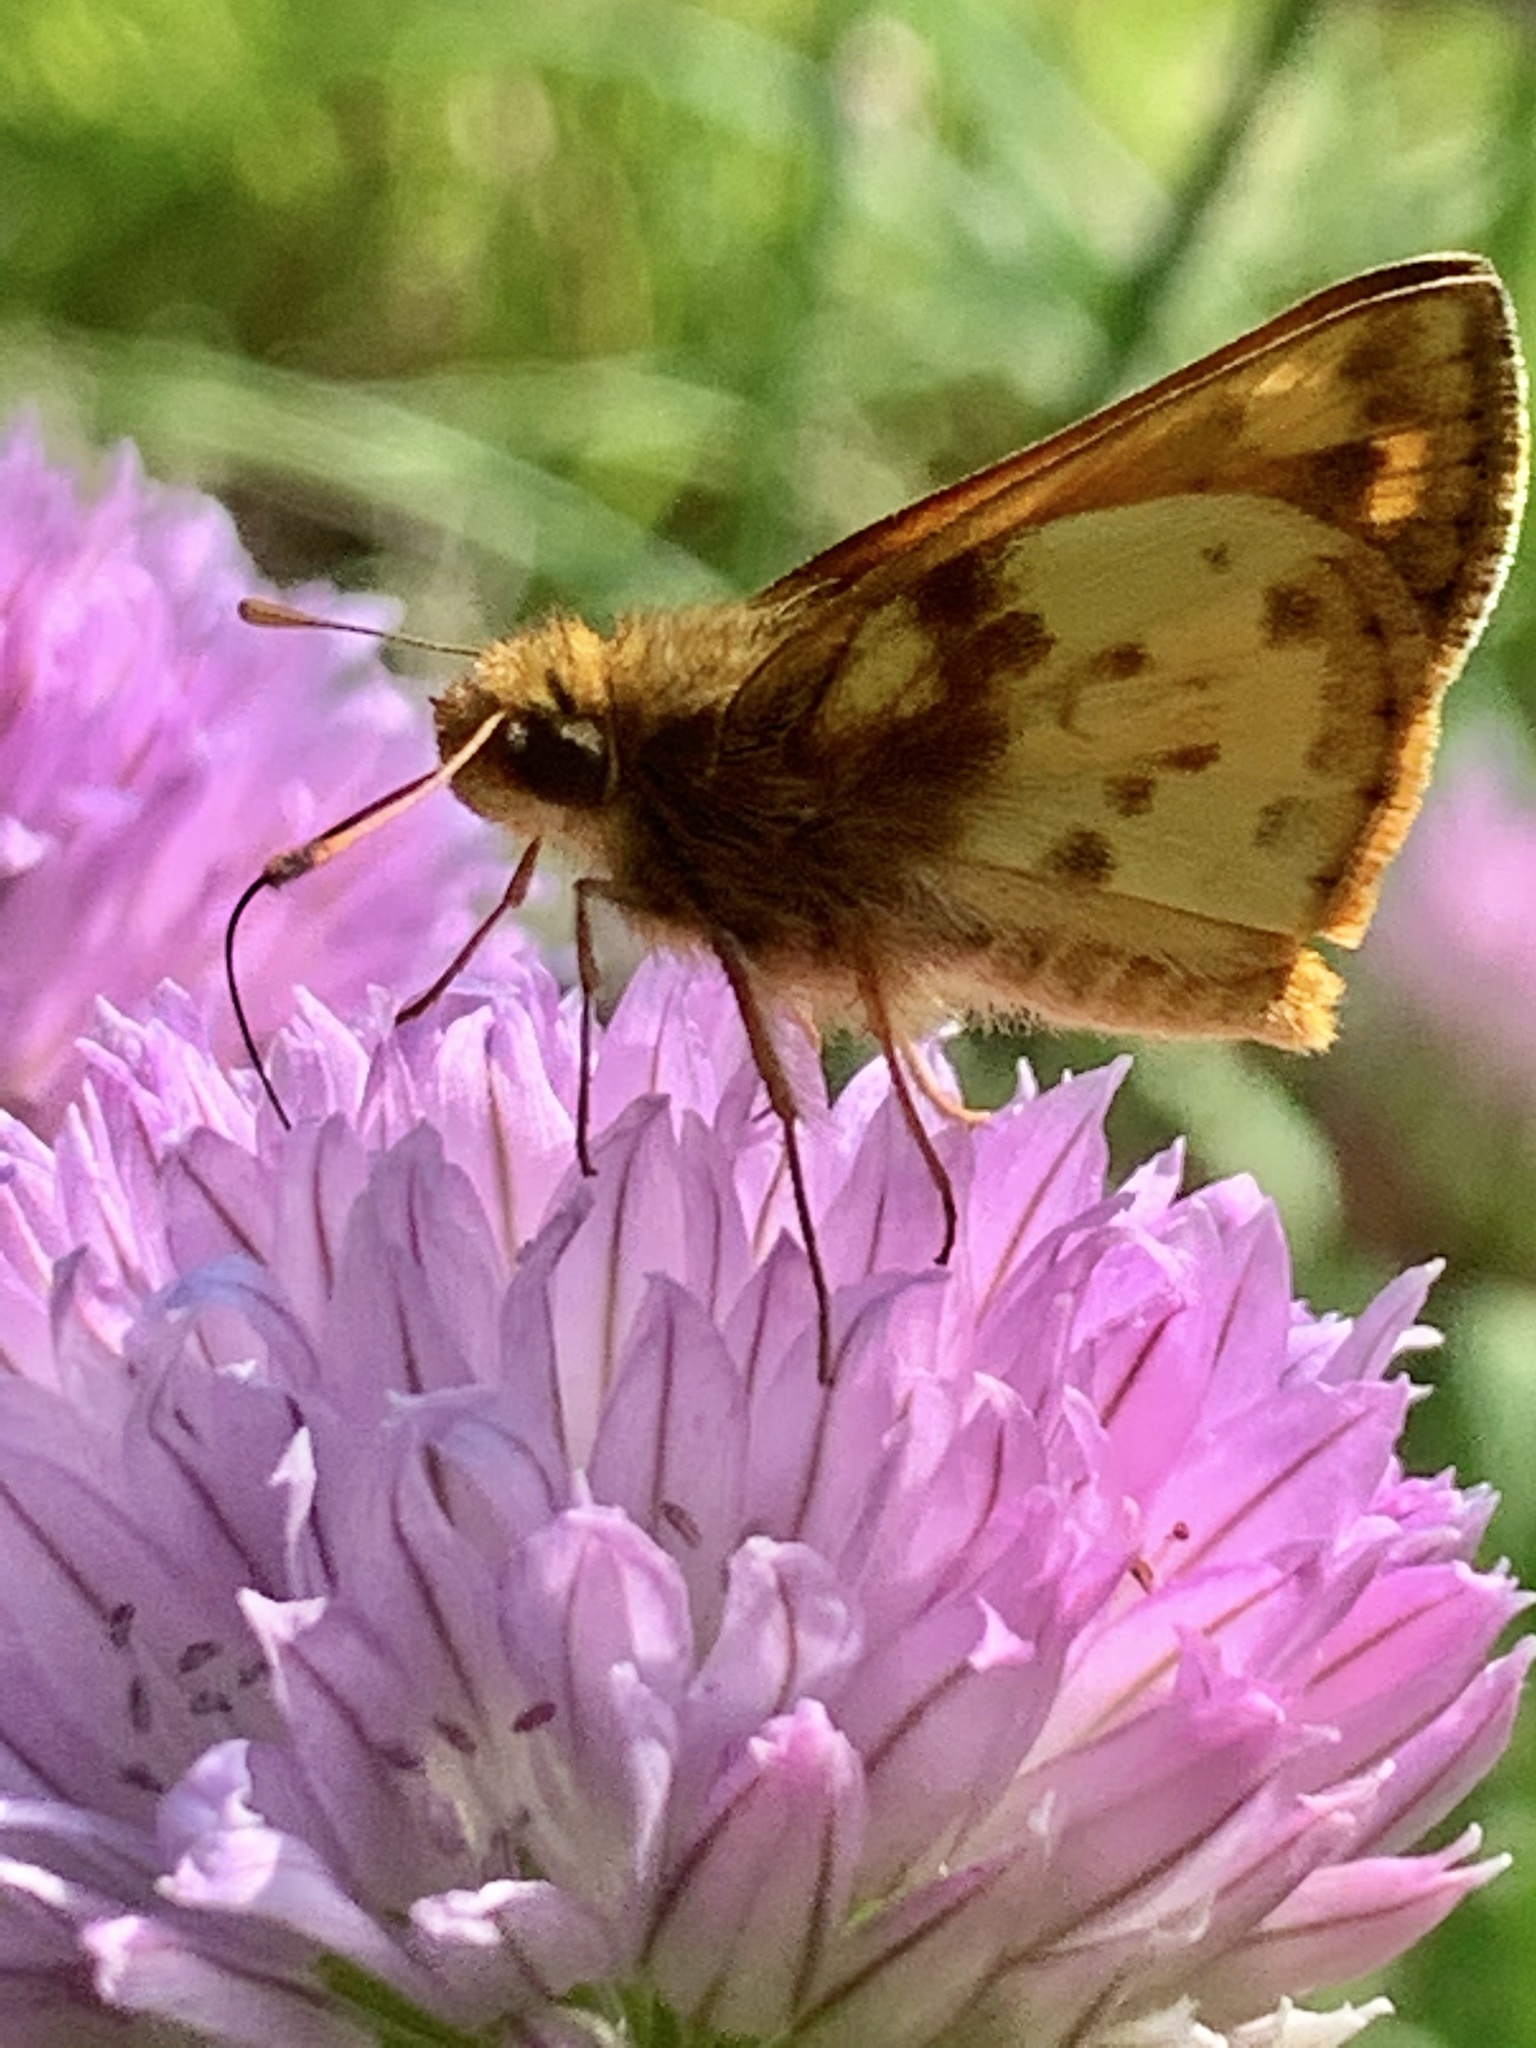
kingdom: Animalia
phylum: Arthropoda
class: Insecta
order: Lepidoptera
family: Hesperiidae
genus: Lon
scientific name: Lon zabulon
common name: Zabulon skipper
